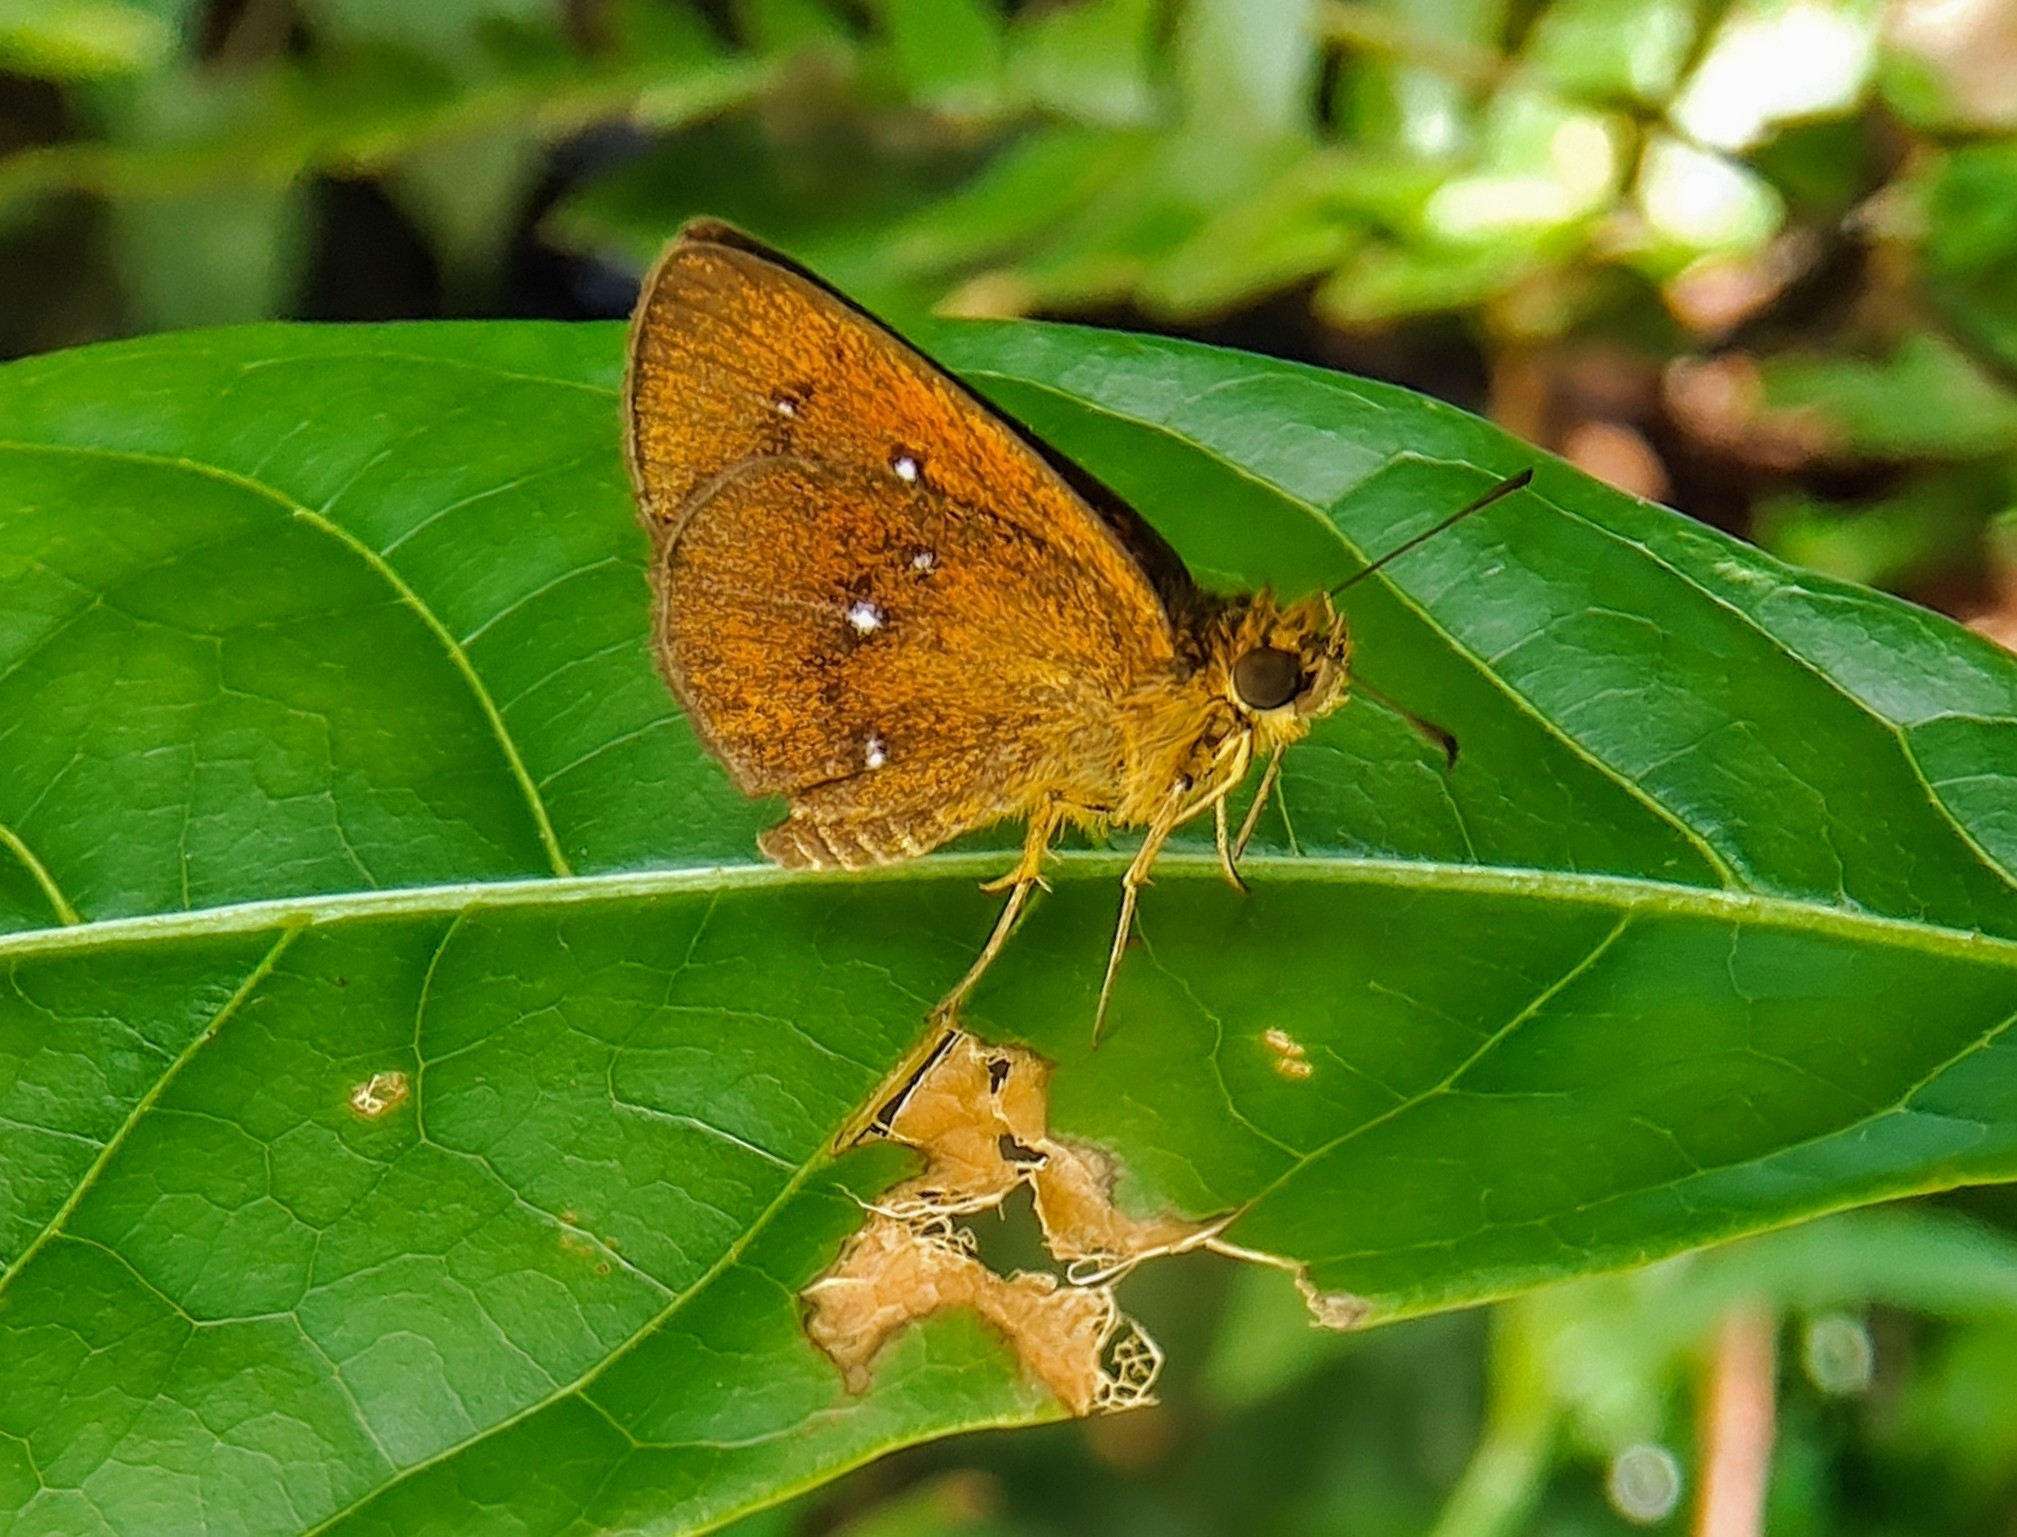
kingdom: Animalia
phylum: Arthropoda
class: Insecta
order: Lepidoptera
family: Hesperiidae
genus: Iambrix
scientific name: Iambrix salsala
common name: Chestnut bob
